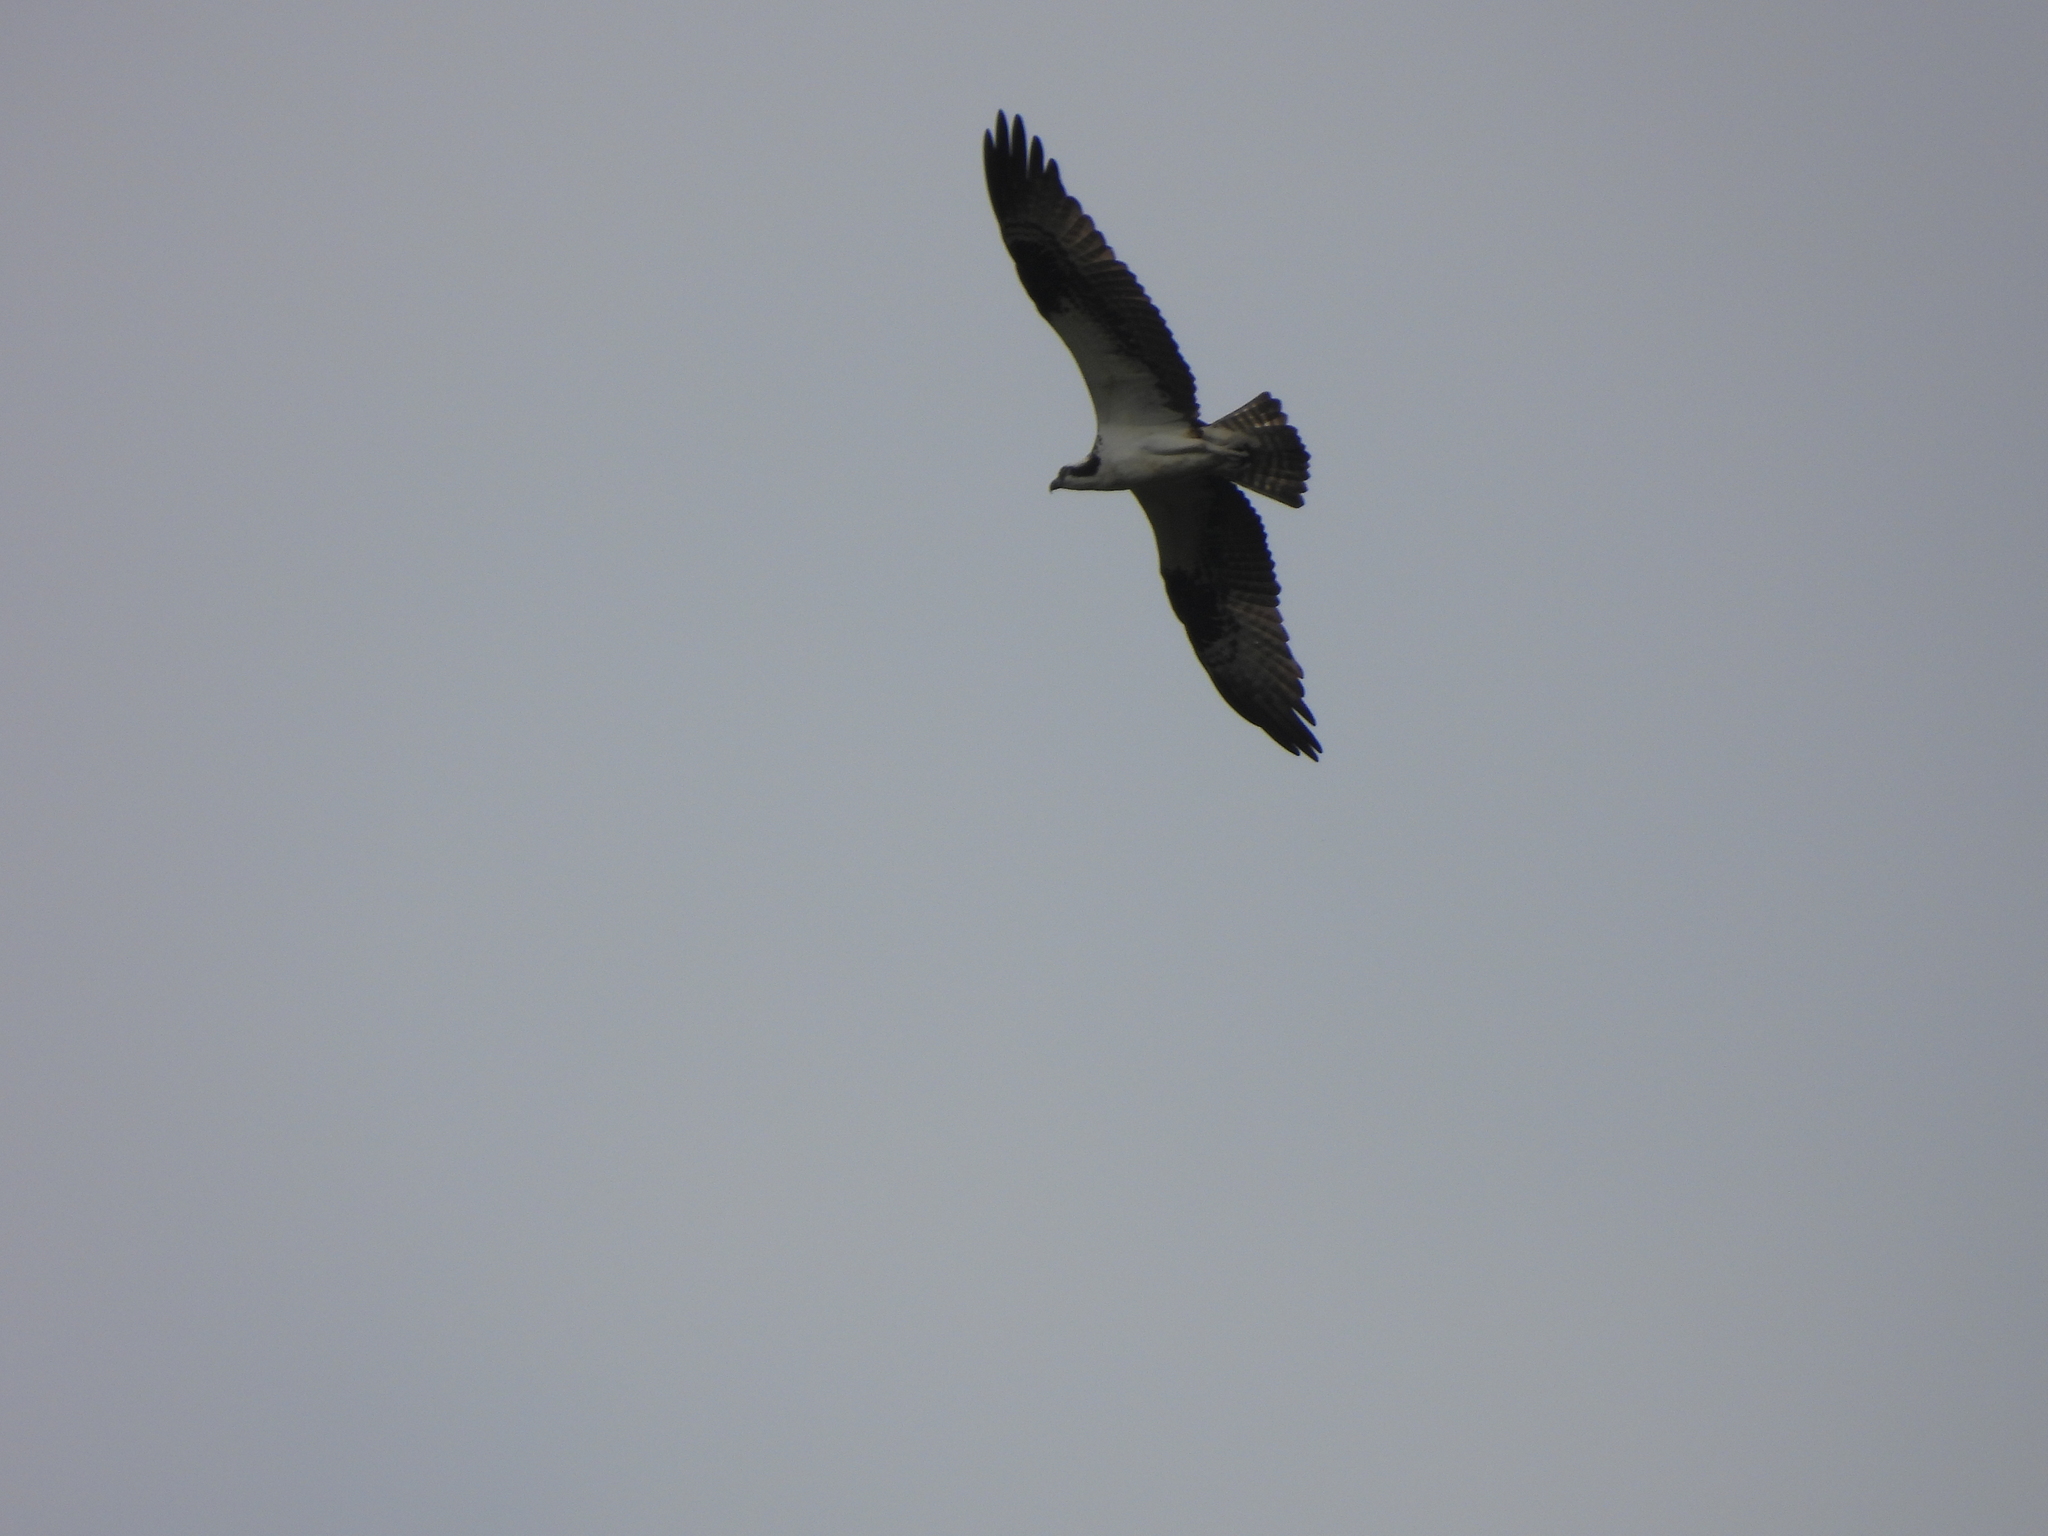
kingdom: Animalia
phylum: Chordata
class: Aves
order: Accipitriformes
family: Pandionidae
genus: Pandion
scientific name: Pandion haliaetus
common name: Osprey
